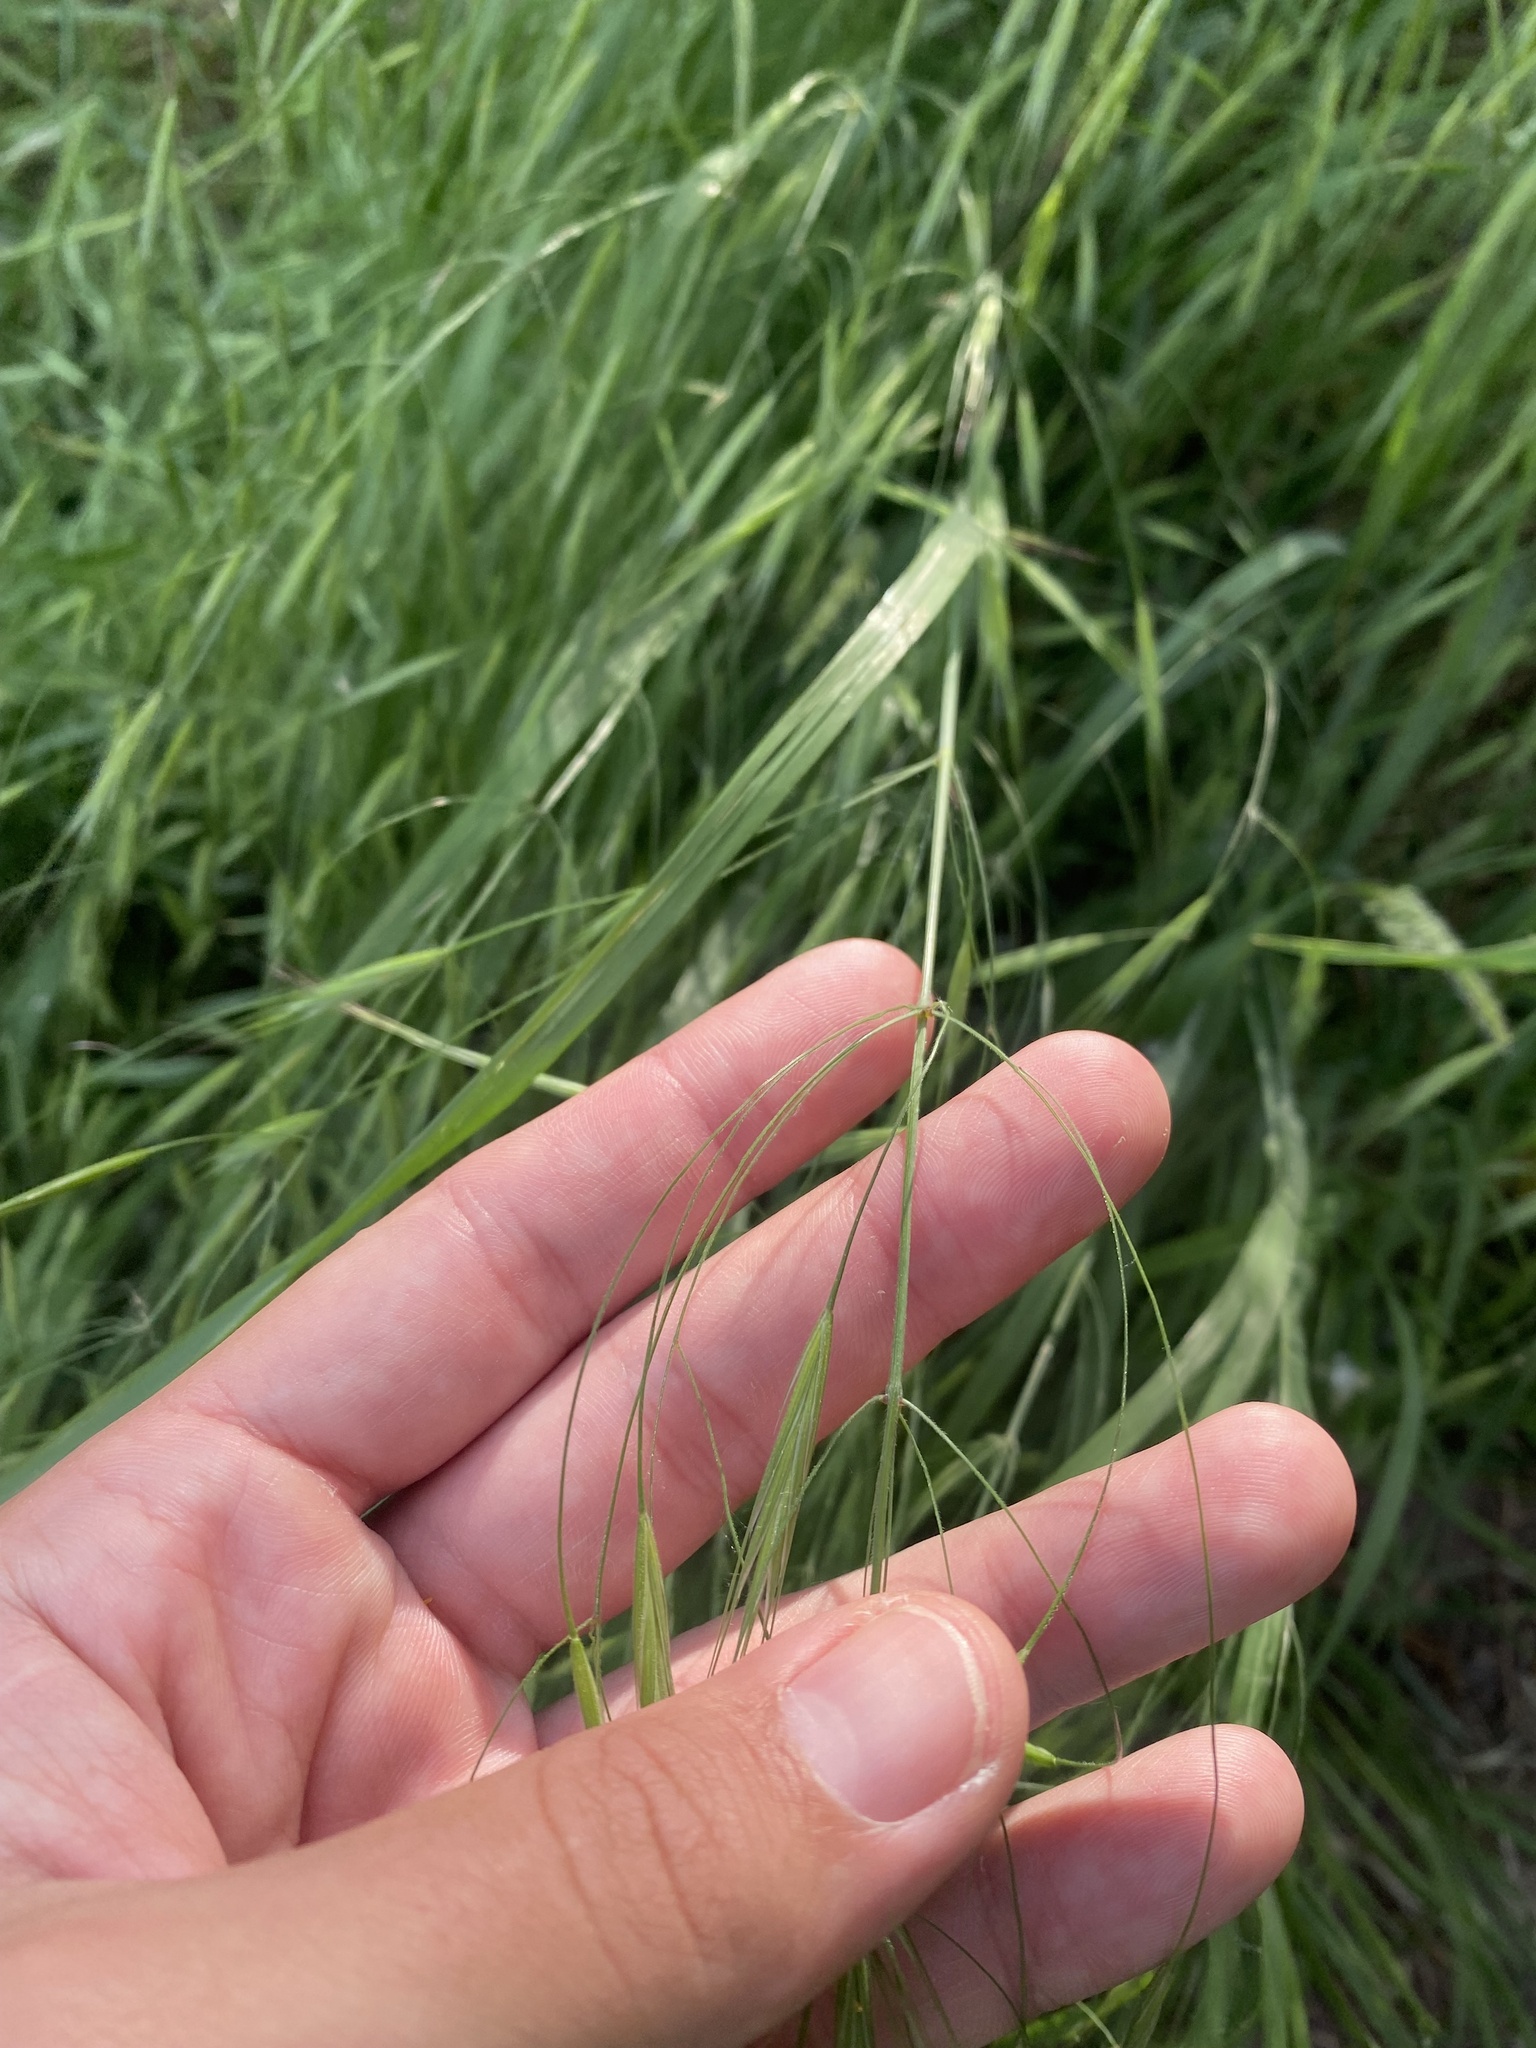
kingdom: Plantae
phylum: Tracheophyta
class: Liliopsida
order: Poales
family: Poaceae
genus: Bromus
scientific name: Bromus sterilis
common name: Poverty brome
